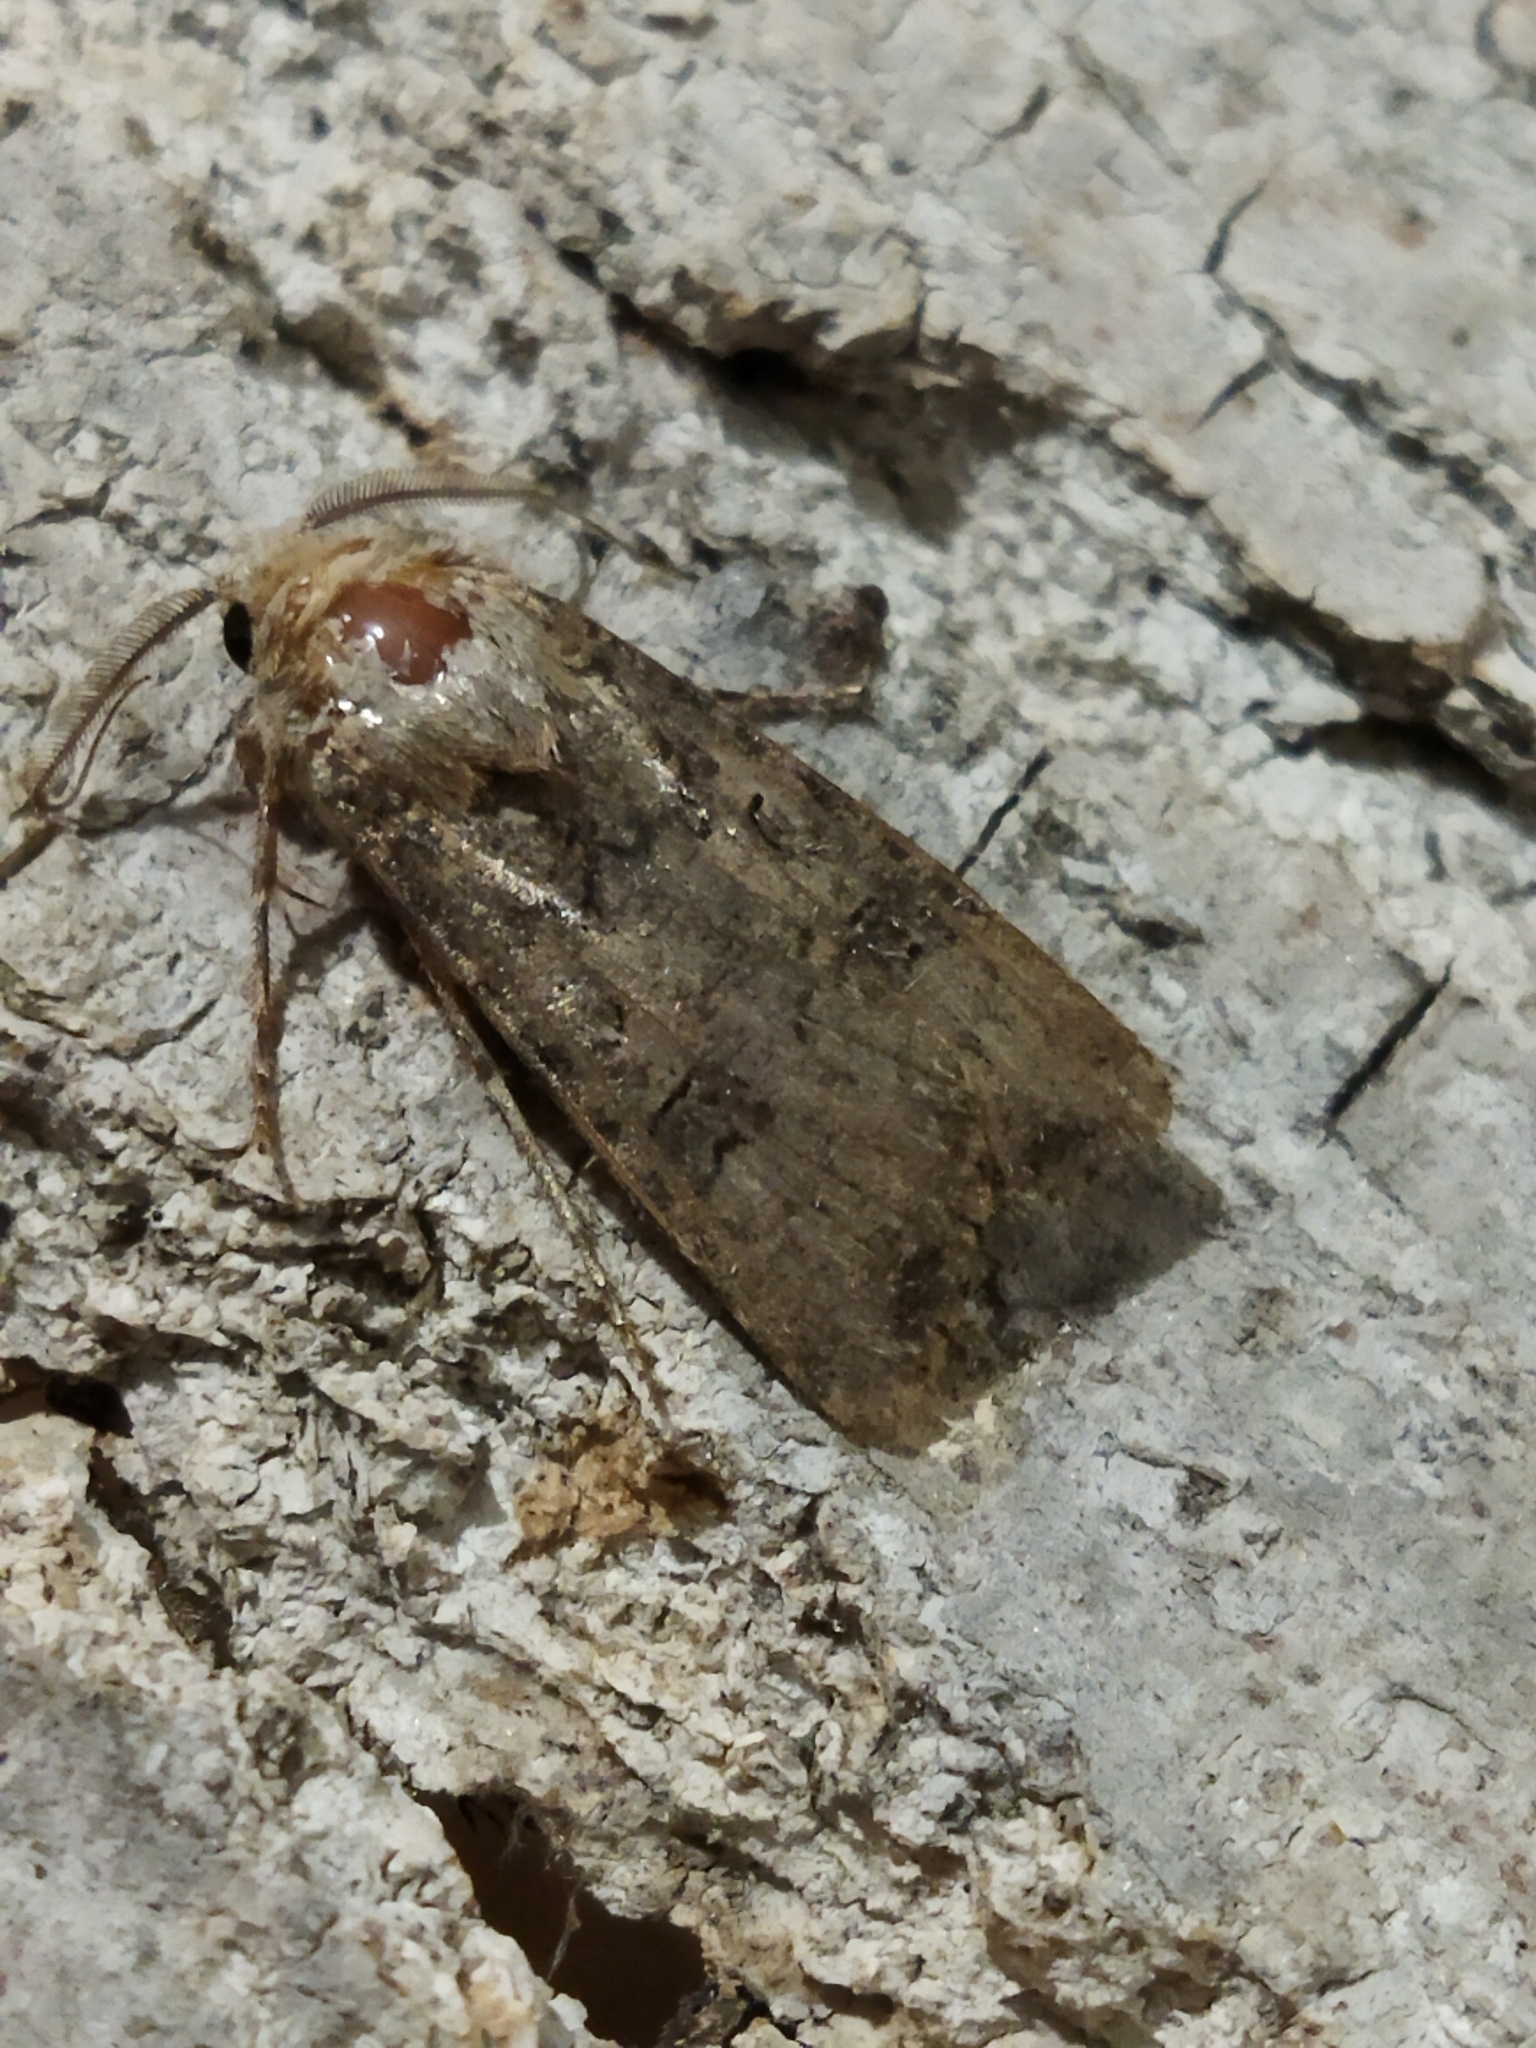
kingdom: Animalia
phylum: Arthropoda
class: Insecta
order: Lepidoptera
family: Noctuidae
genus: Agrotis
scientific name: Agrotis segetum
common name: Turnip moth
